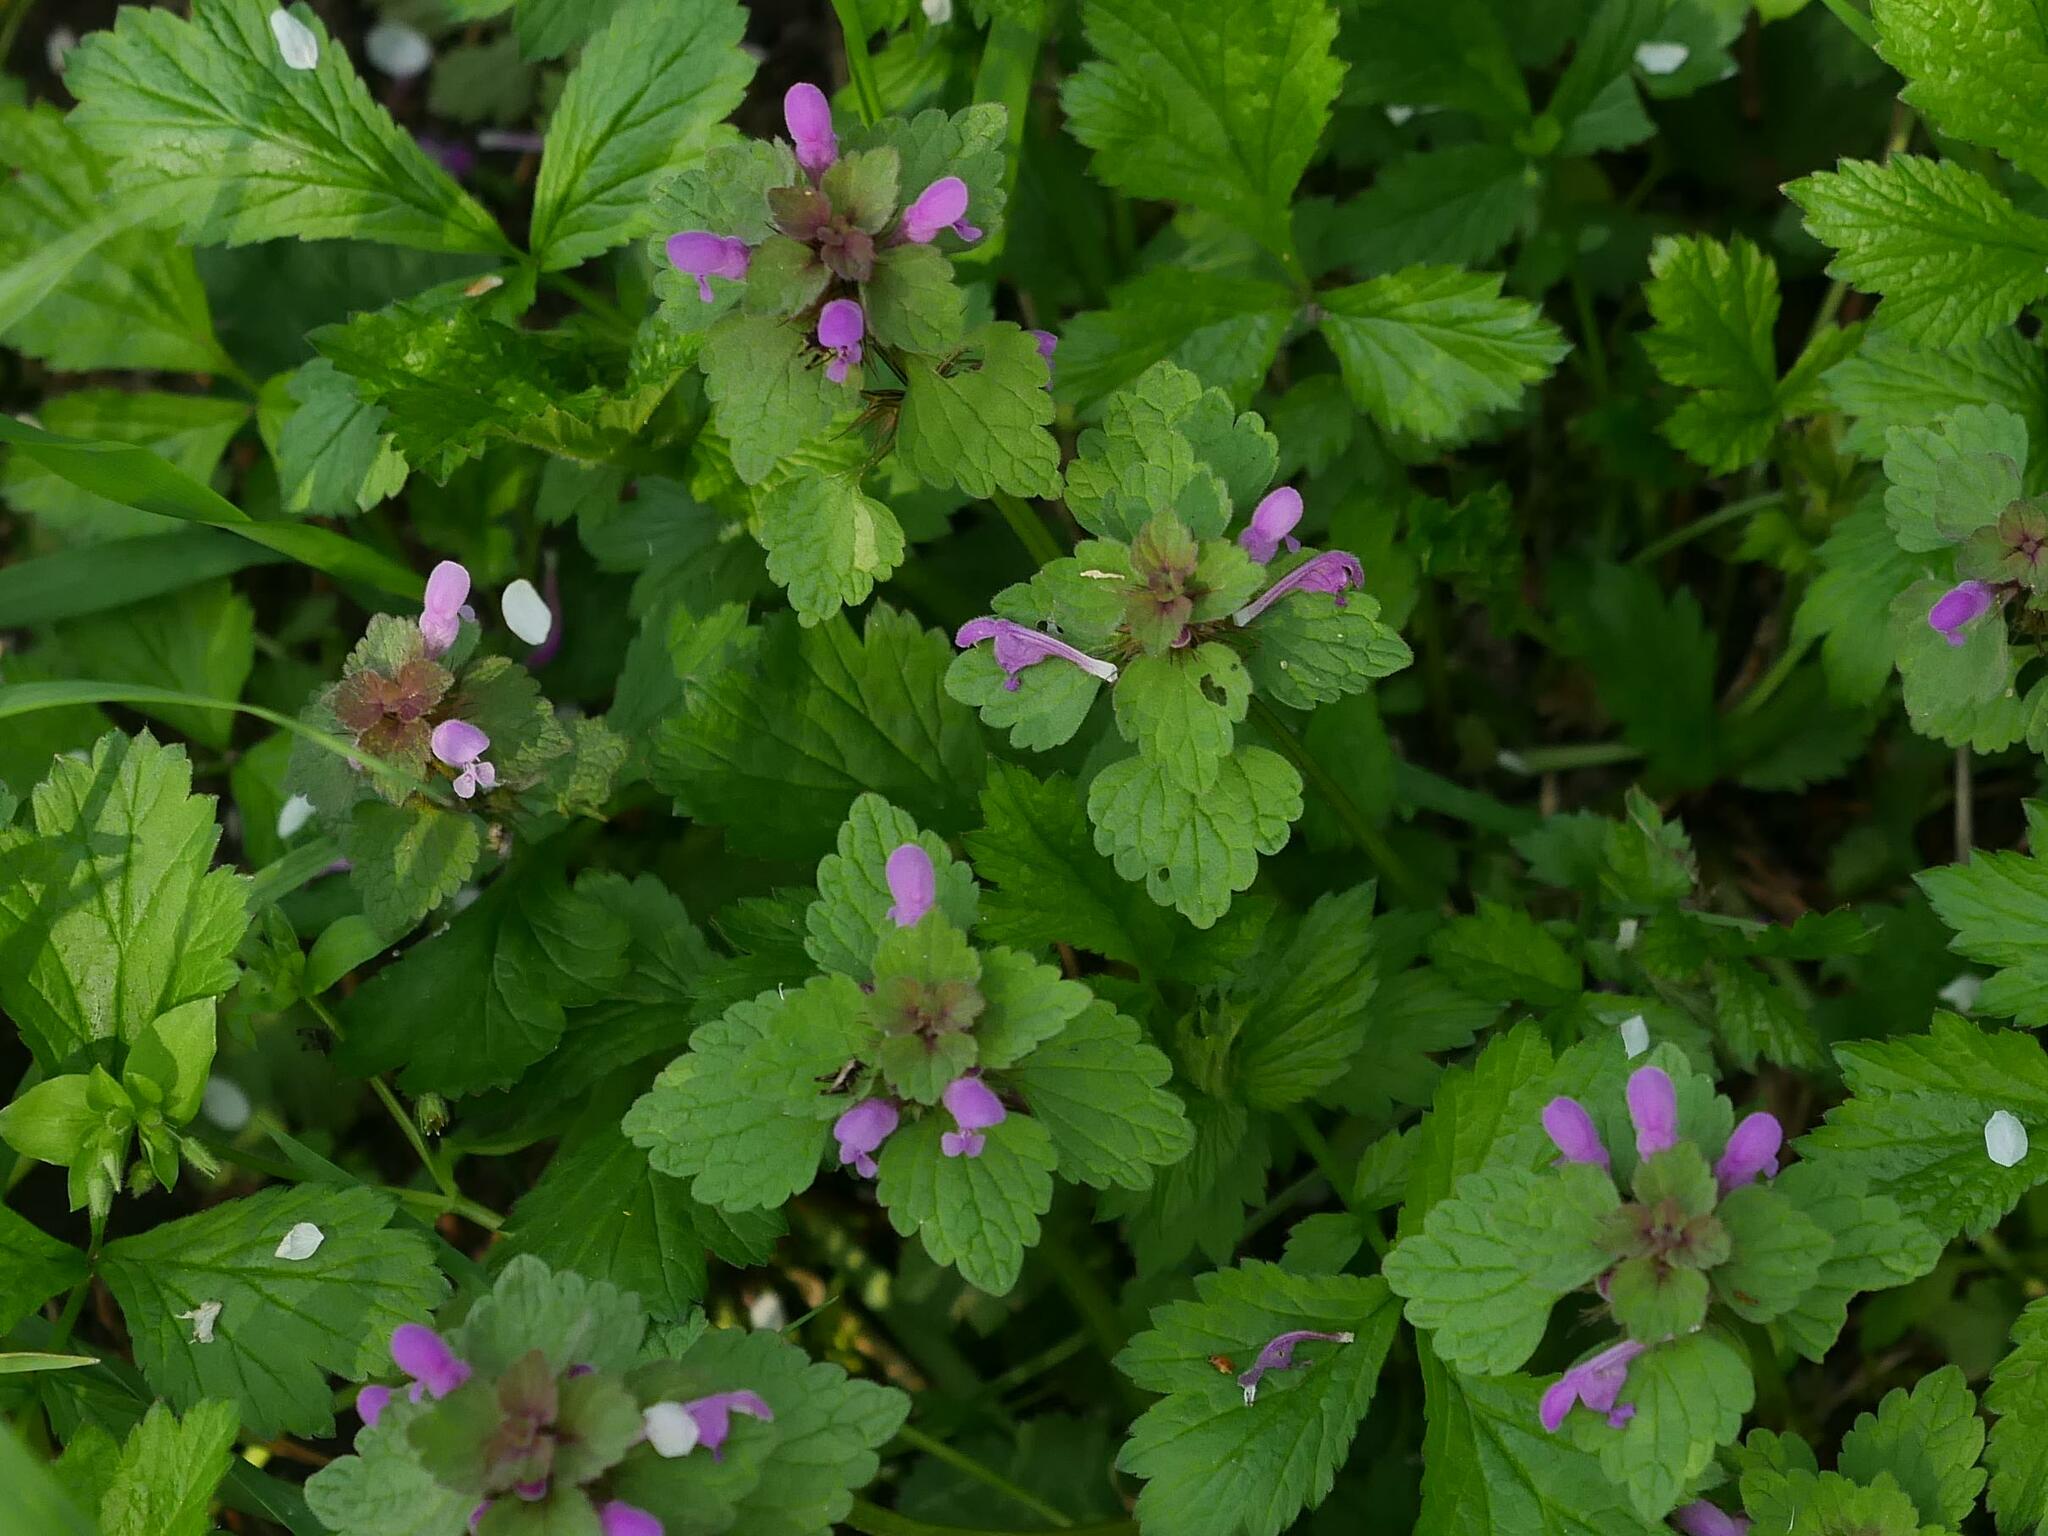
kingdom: Plantae
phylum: Tracheophyta
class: Magnoliopsida
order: Lamiales
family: Lamiaceae
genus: Lamium
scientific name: Lamium purpureum
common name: Red dead-nettle
